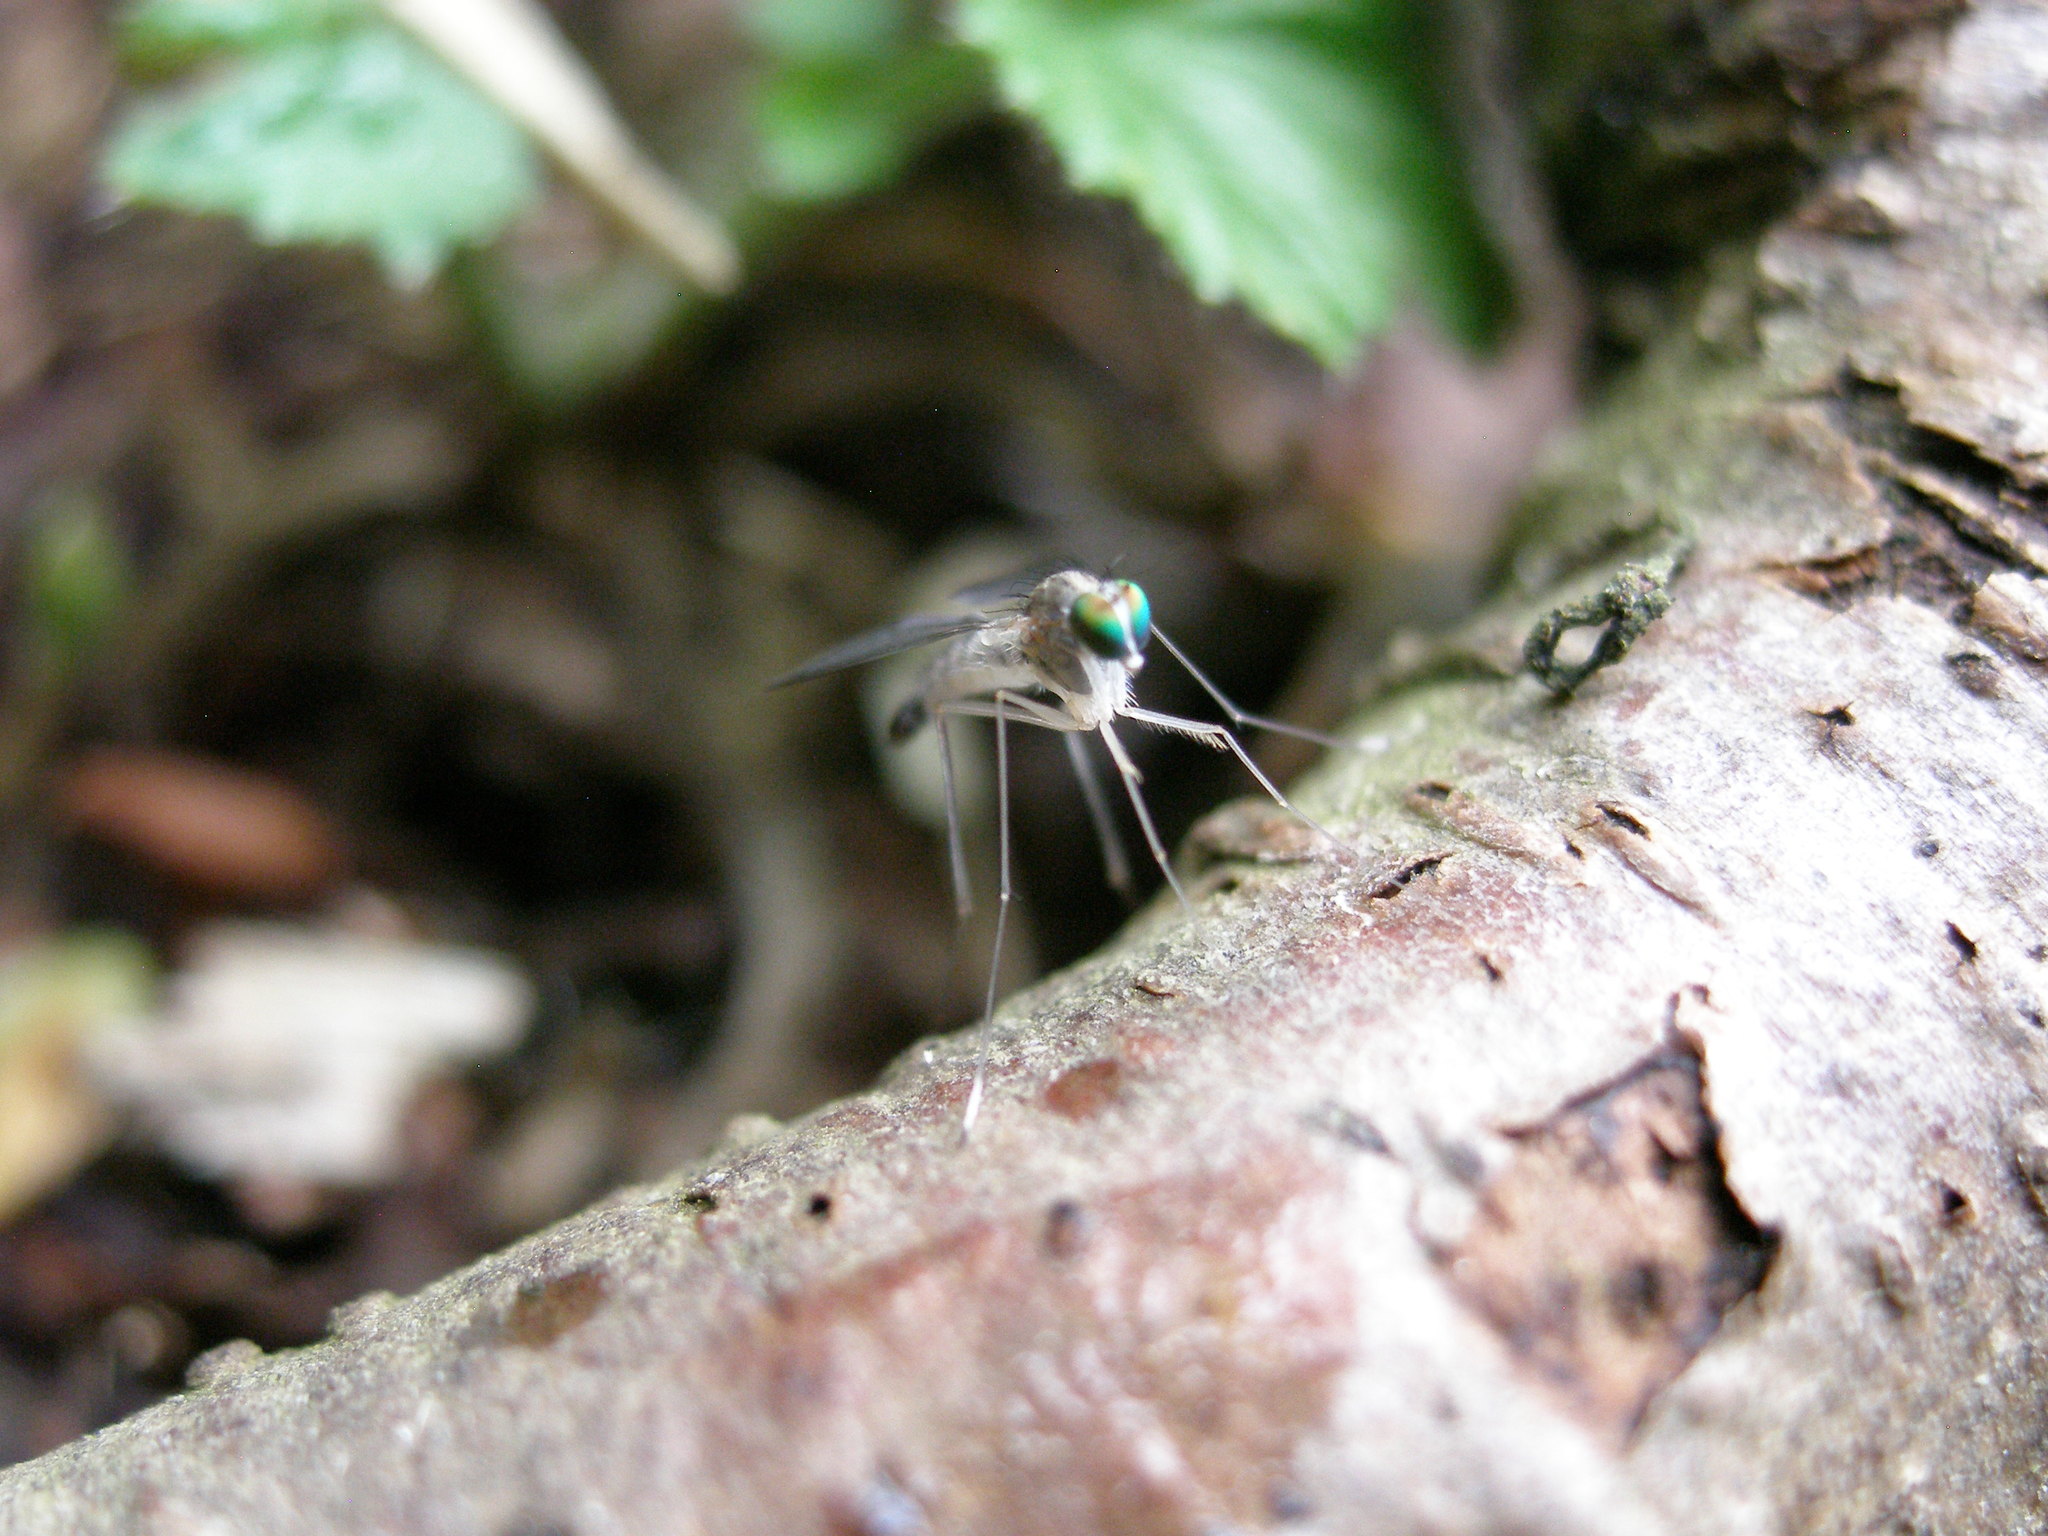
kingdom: Animalia
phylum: Arthropoda
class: Insecta
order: Diptera
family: Dolichopodidae
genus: Sciapus
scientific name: Sciapus platypterus
